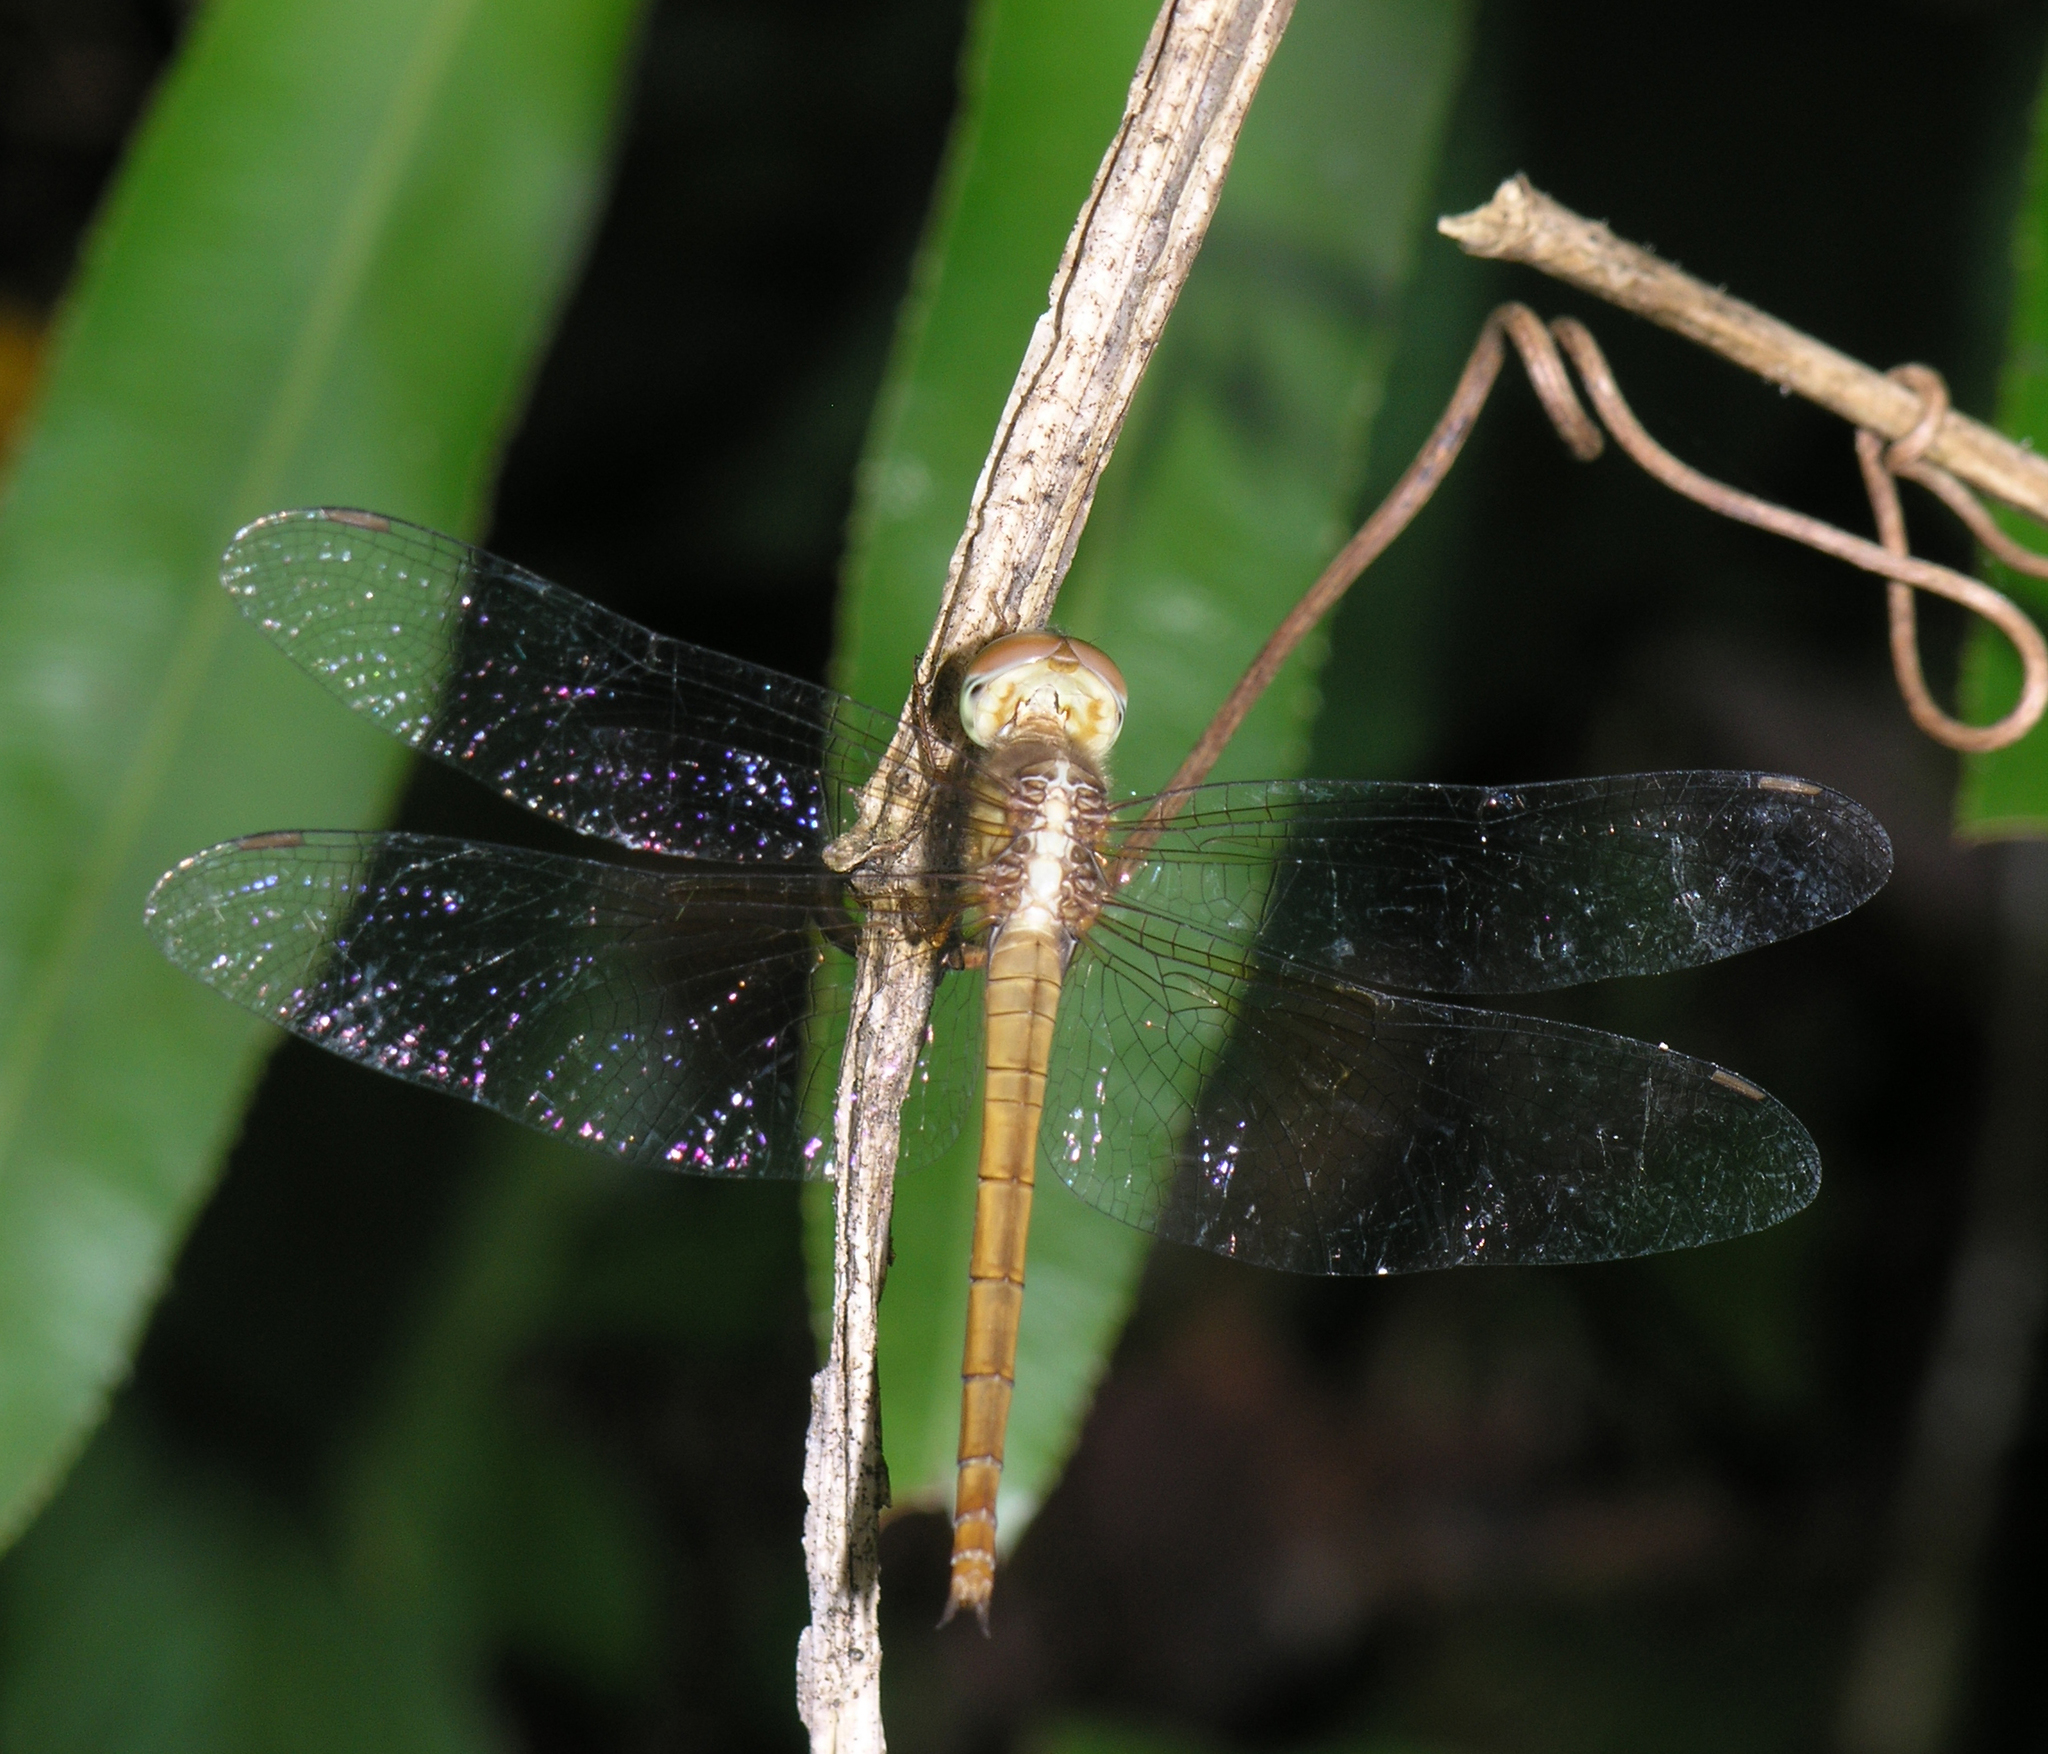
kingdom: Animalia
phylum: Arthropoda
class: Insecta
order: Odonata
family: Libellulidae
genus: Tholymis
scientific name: Tholymis tillarga
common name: Coral-tailed cloud wing
